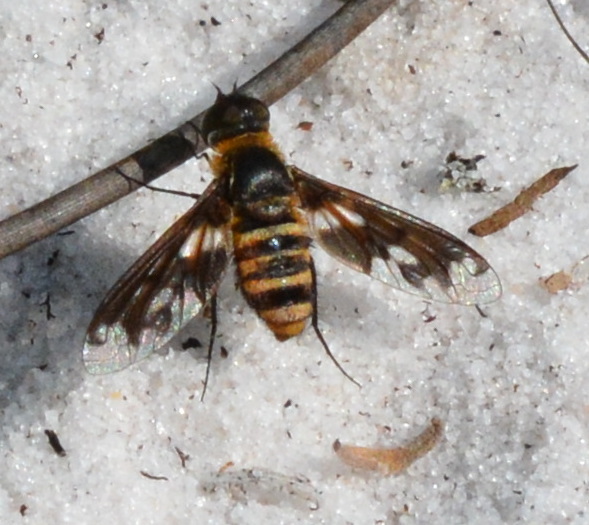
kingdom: Animalia
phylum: Arthropoda
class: Insecta
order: Diptera
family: Bombyliidae
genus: Exoprosopa
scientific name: Exoprosopa fascipennis
